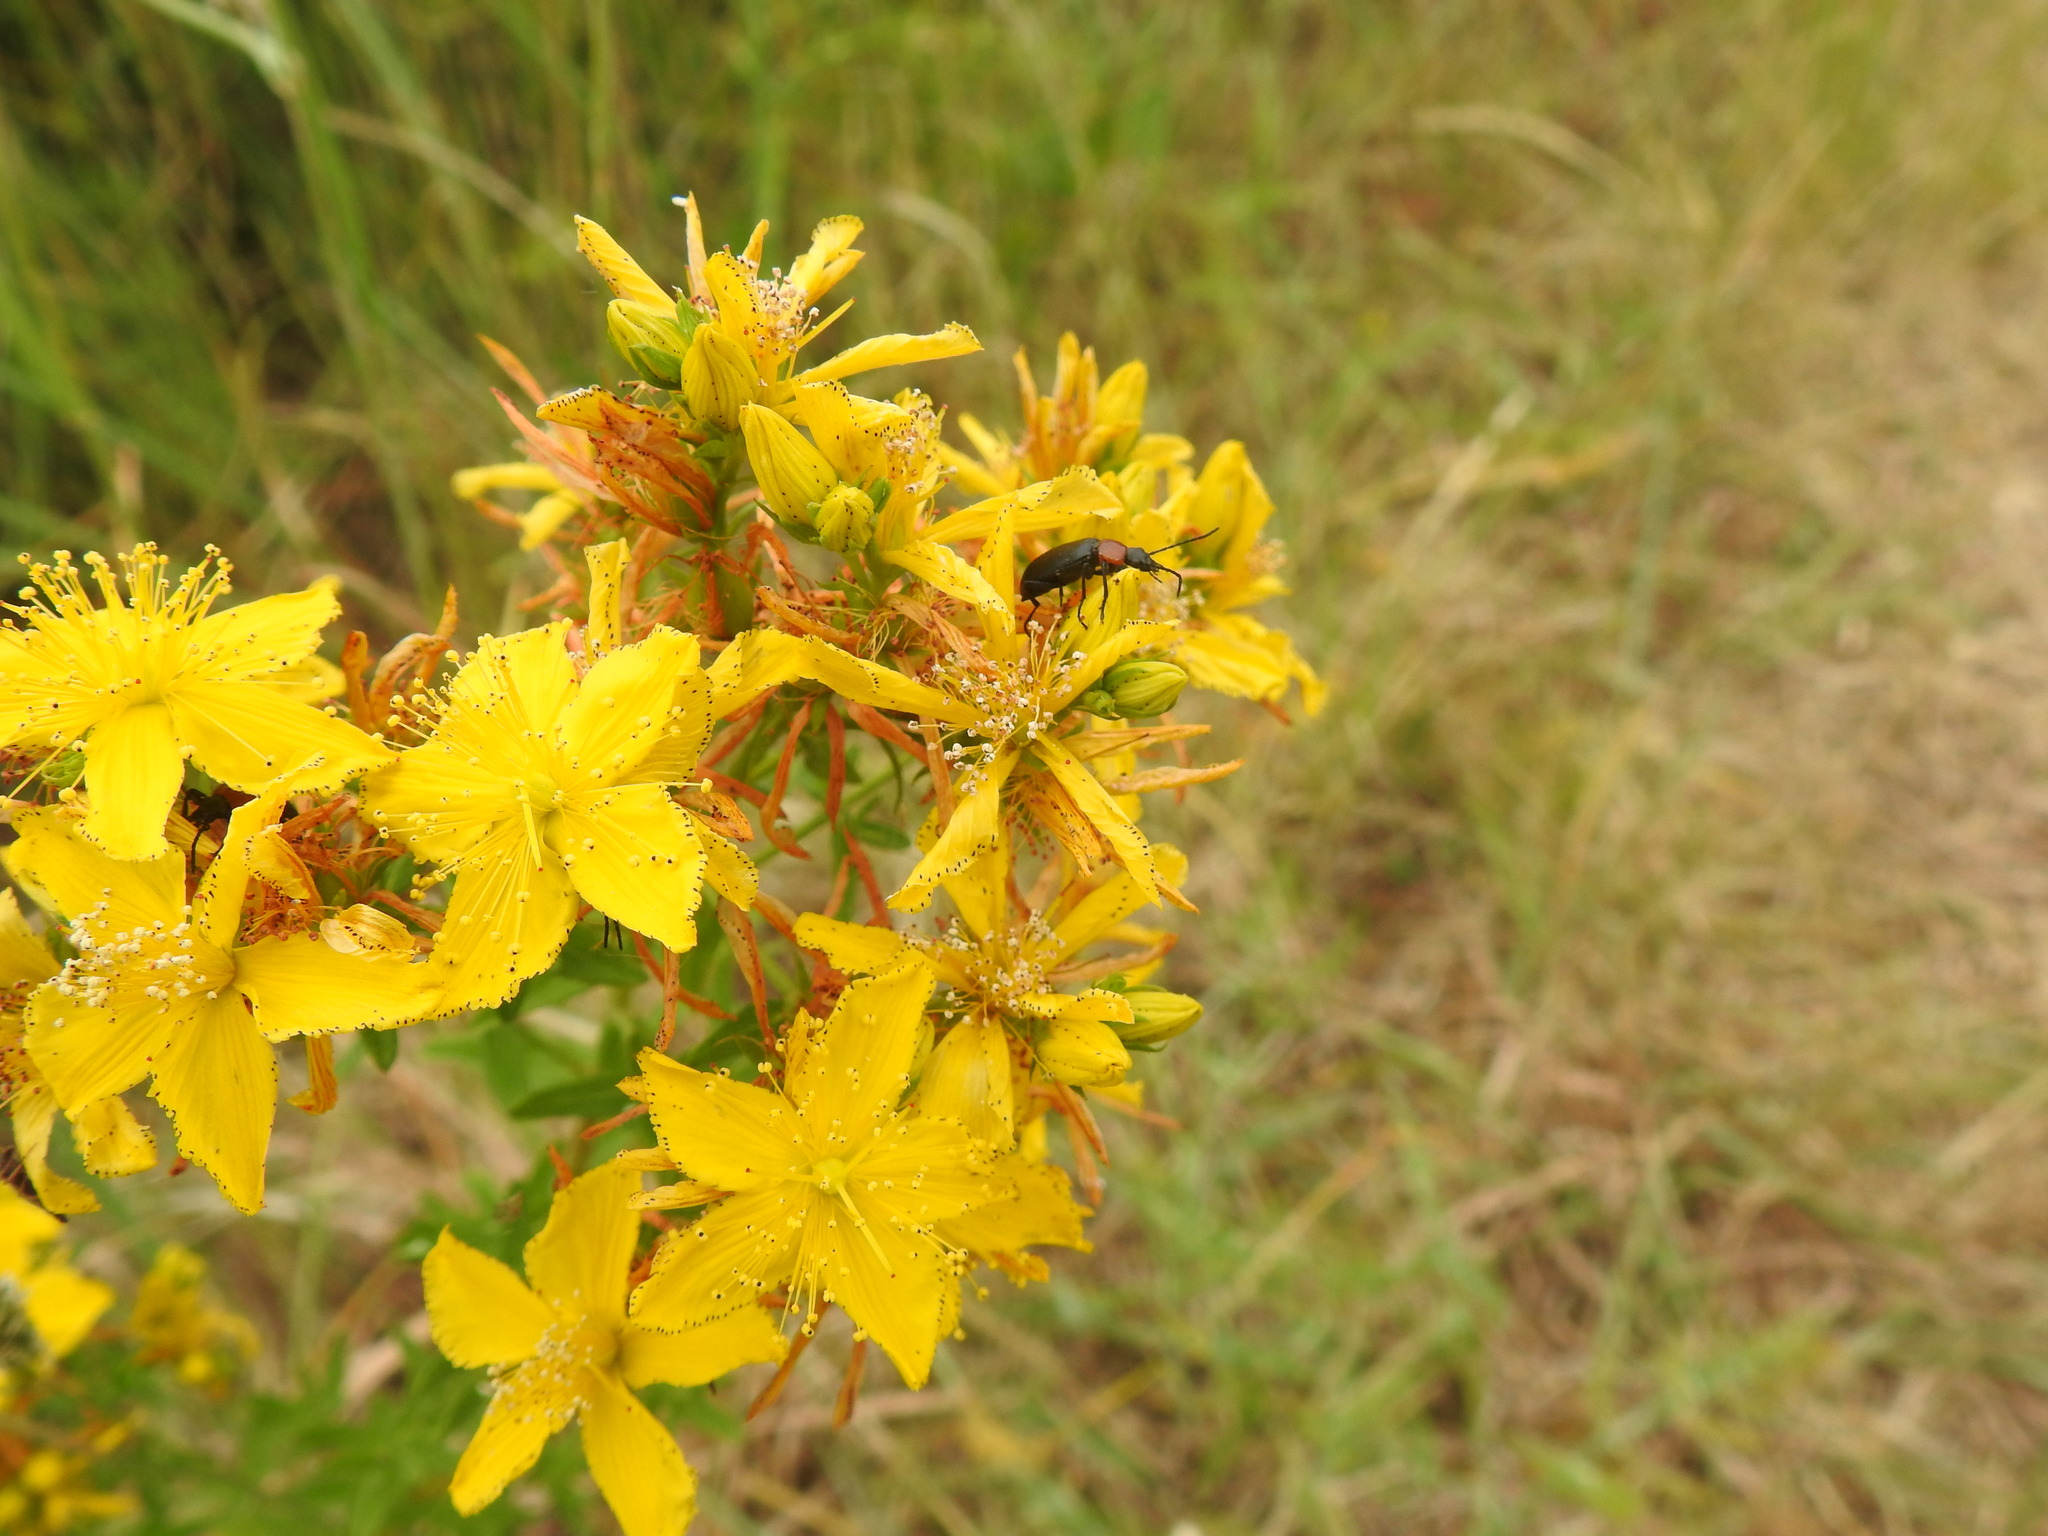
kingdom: Plantae
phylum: Tracheophyta
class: Magnoliopsida
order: Malpighiales
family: Hypericaceae
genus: Hypericum
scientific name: Hypericum perforatum
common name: Common st. johnswort
